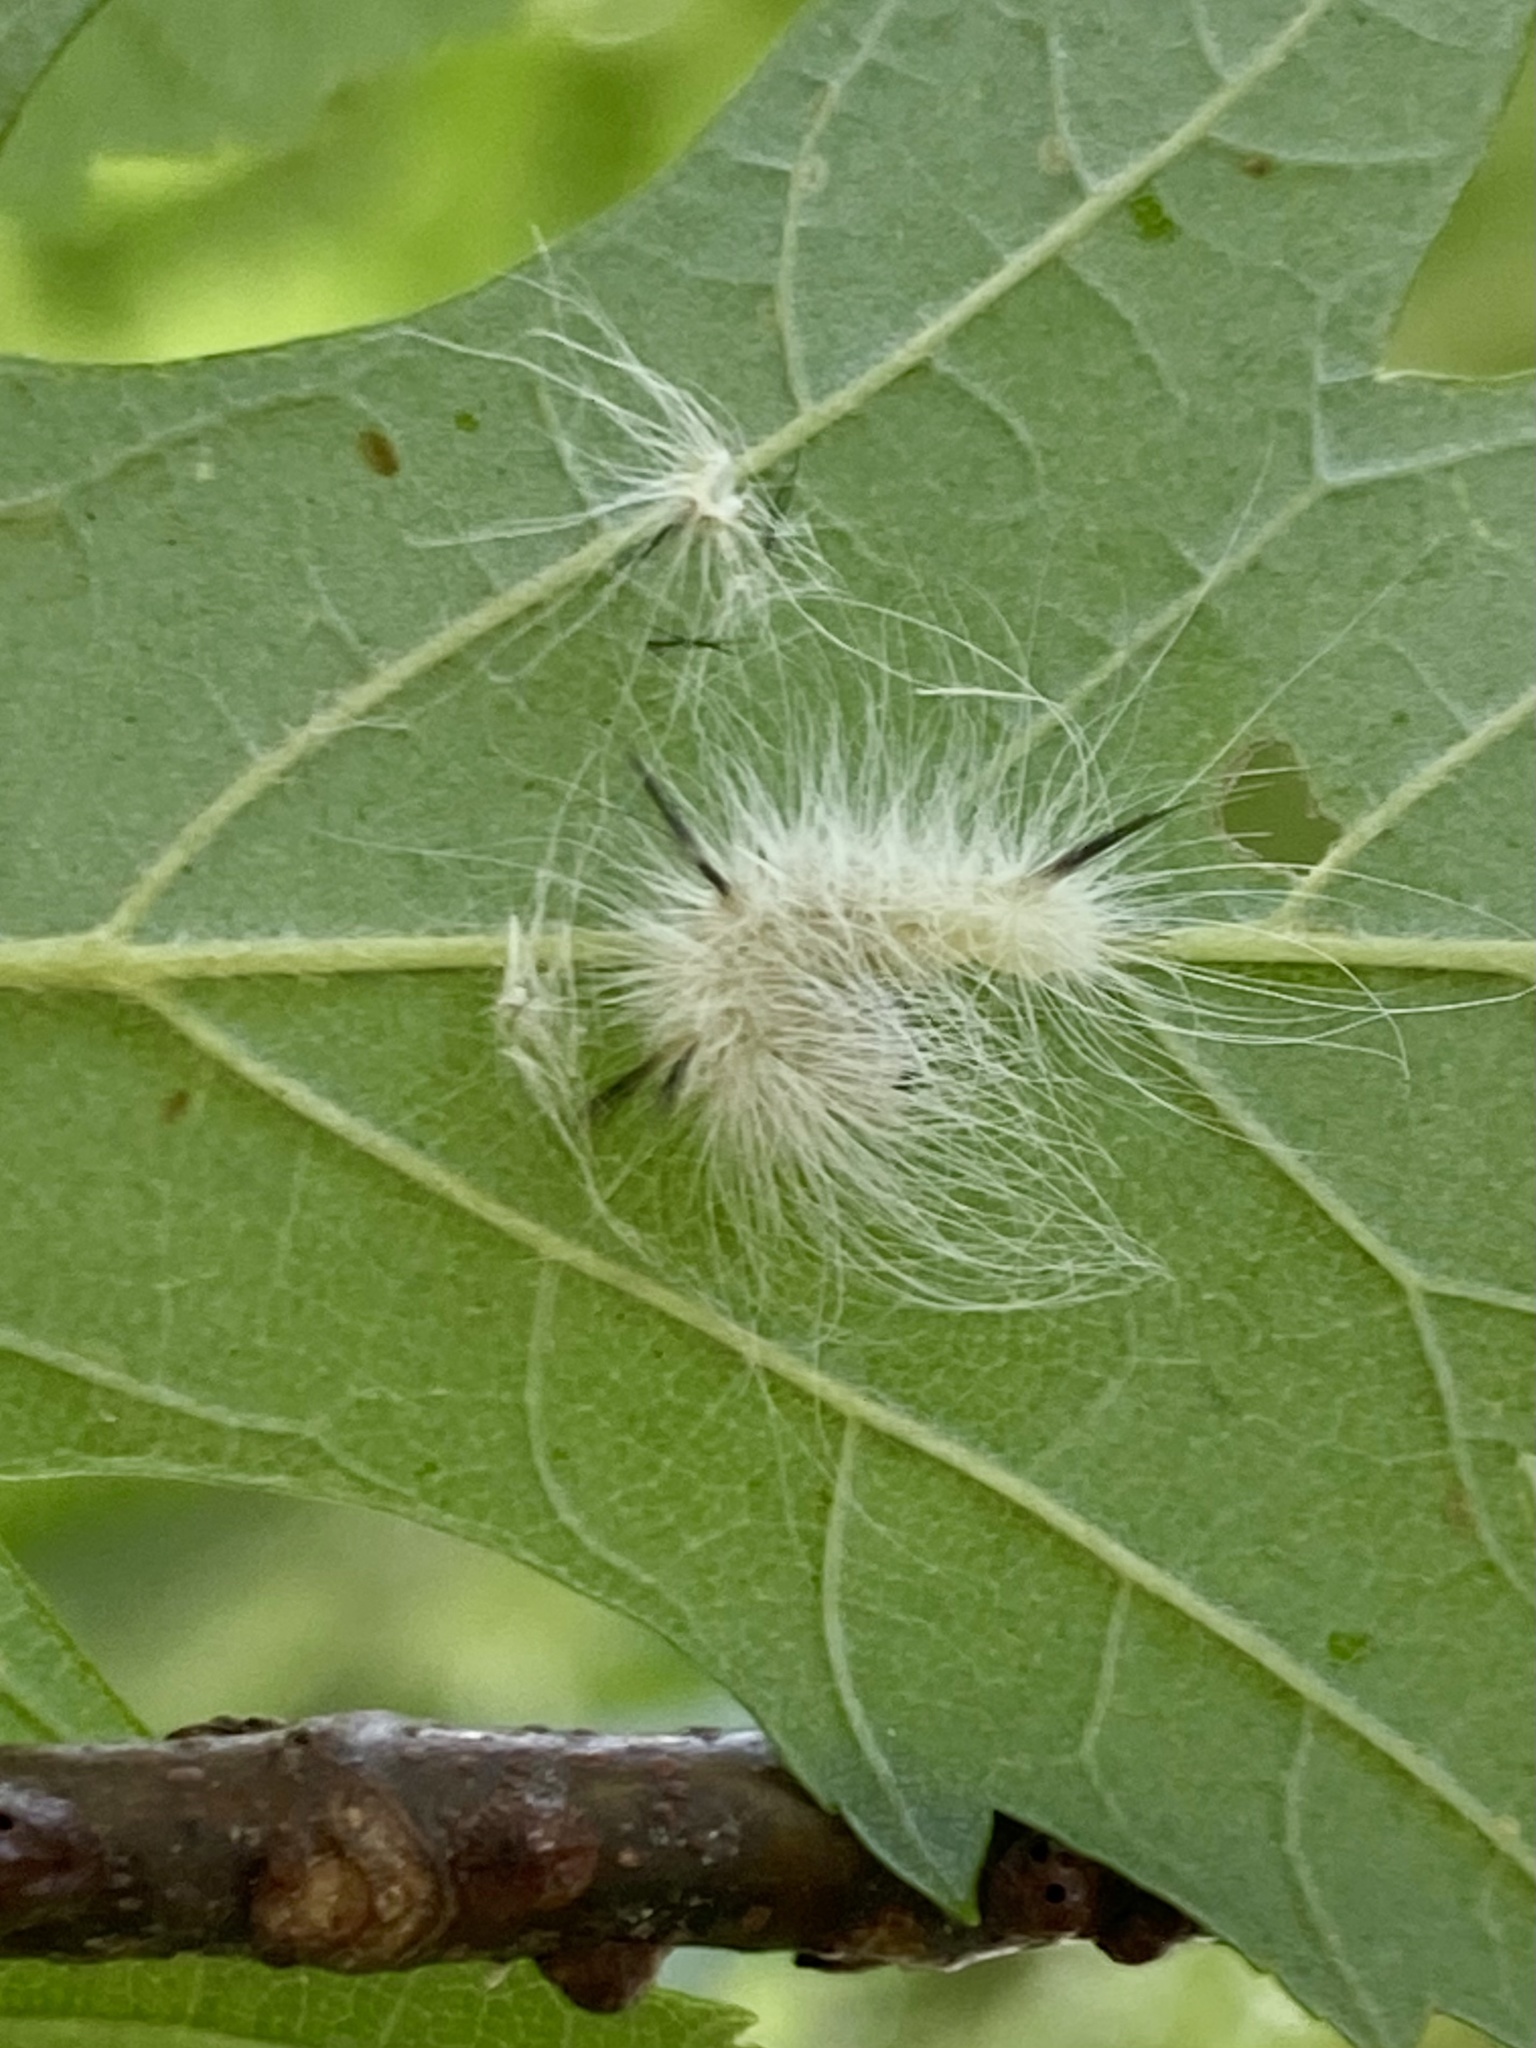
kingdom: Animalia
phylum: Arthropoda
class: Insecta
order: Lepidoptera
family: Noctuidae
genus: Acronicta
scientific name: Acronicta americana
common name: American dagger
